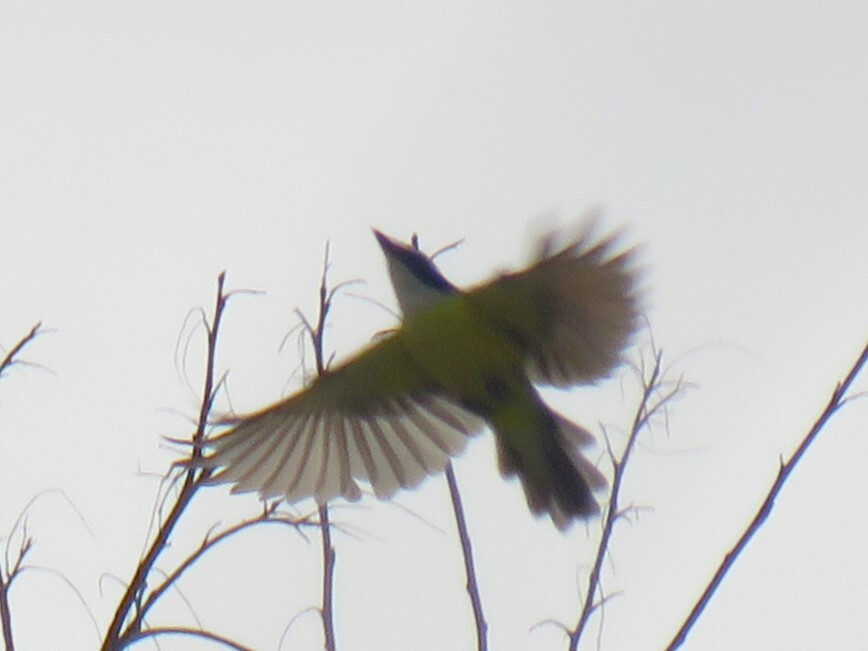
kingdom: Animalia
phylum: Chordata
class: Aves
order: Passeriformes
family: Tyrannidae
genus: Pitangus
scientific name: Pitangus sulphuratus
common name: Great kiskadee
